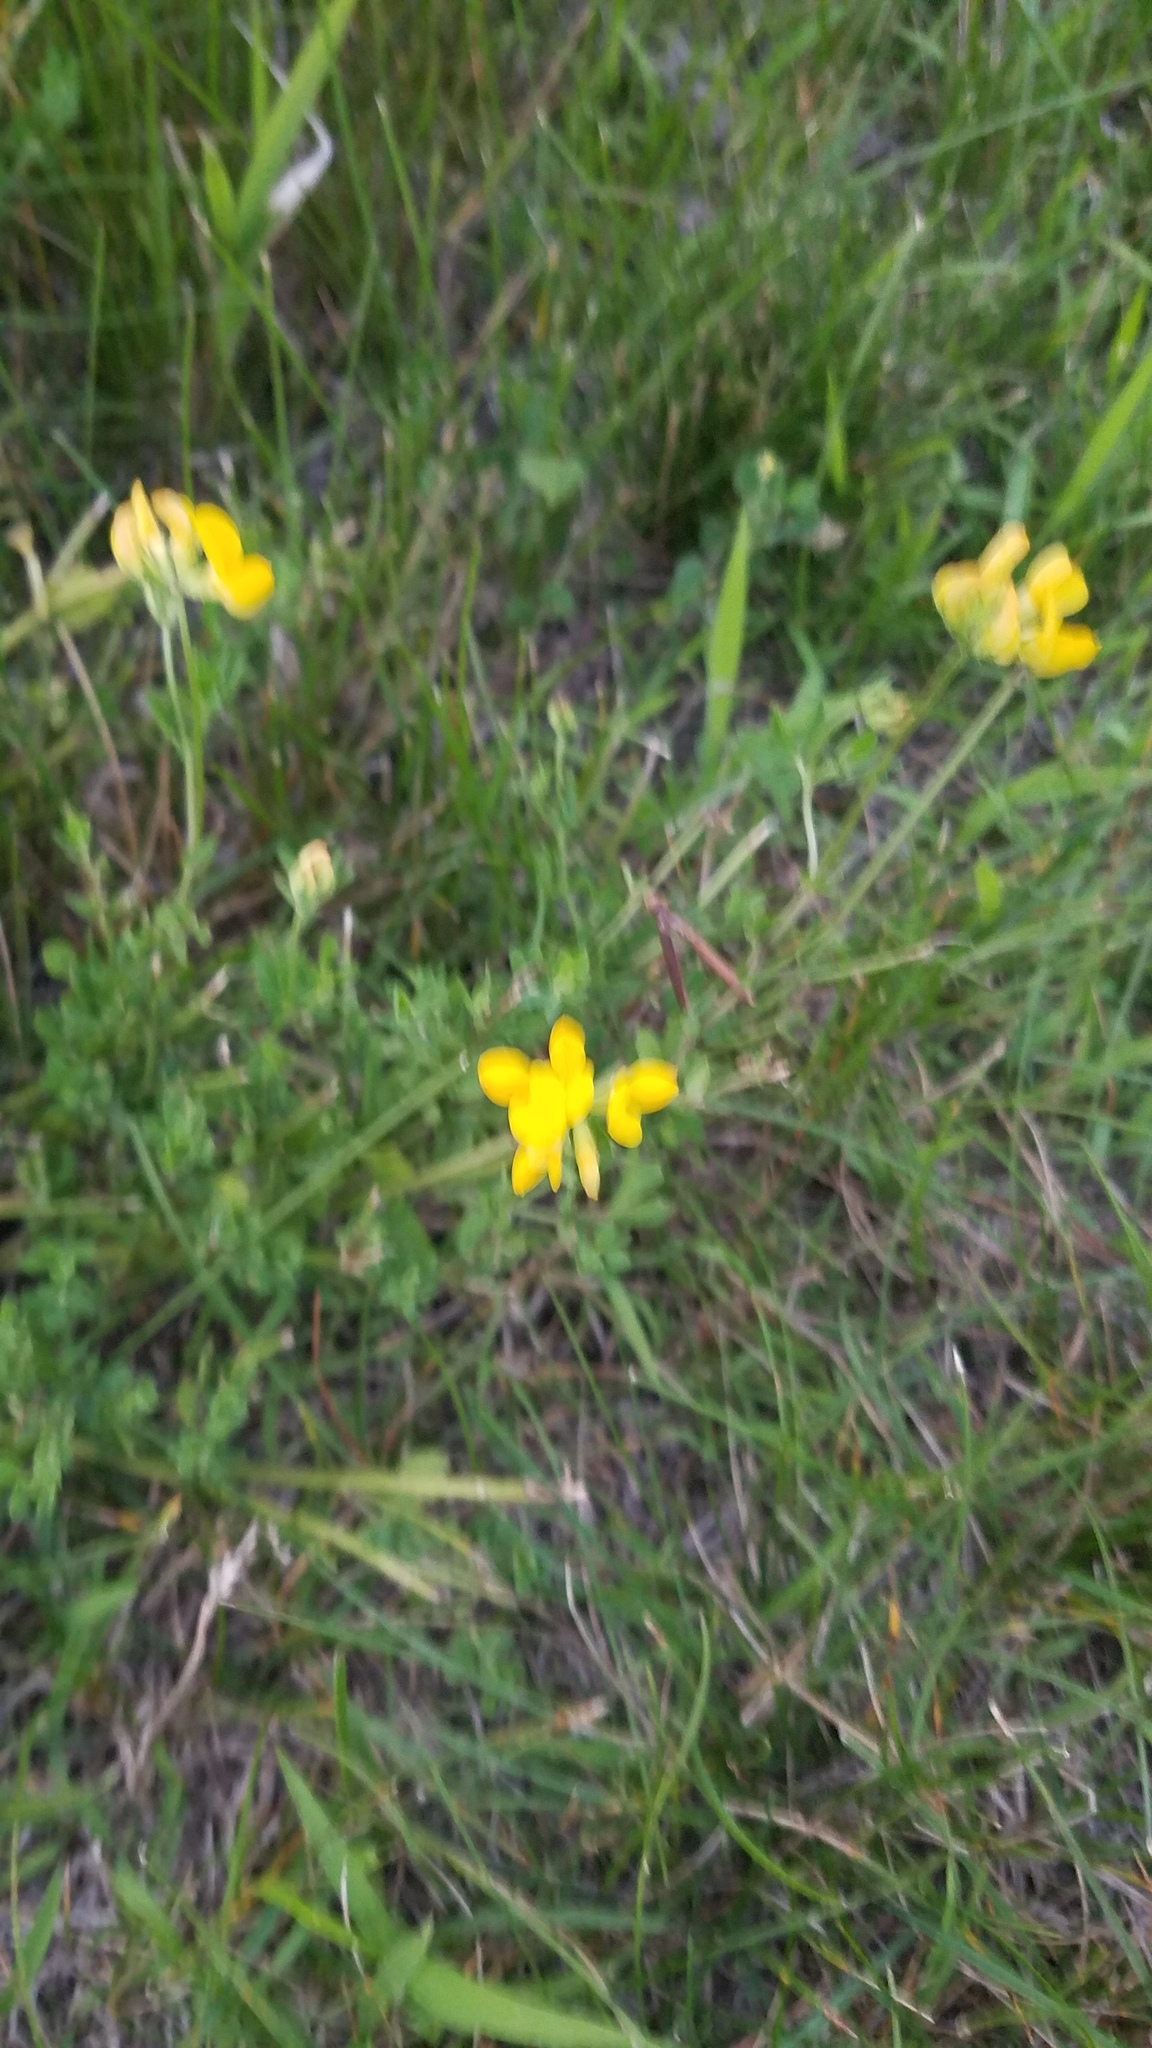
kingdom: Plantae
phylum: Tracheophyta
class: Magnoliopsida
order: Fabales
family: Fabaceae
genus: Lotus
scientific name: Lotus corniculatus
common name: Common bird's-foot-trefoil
